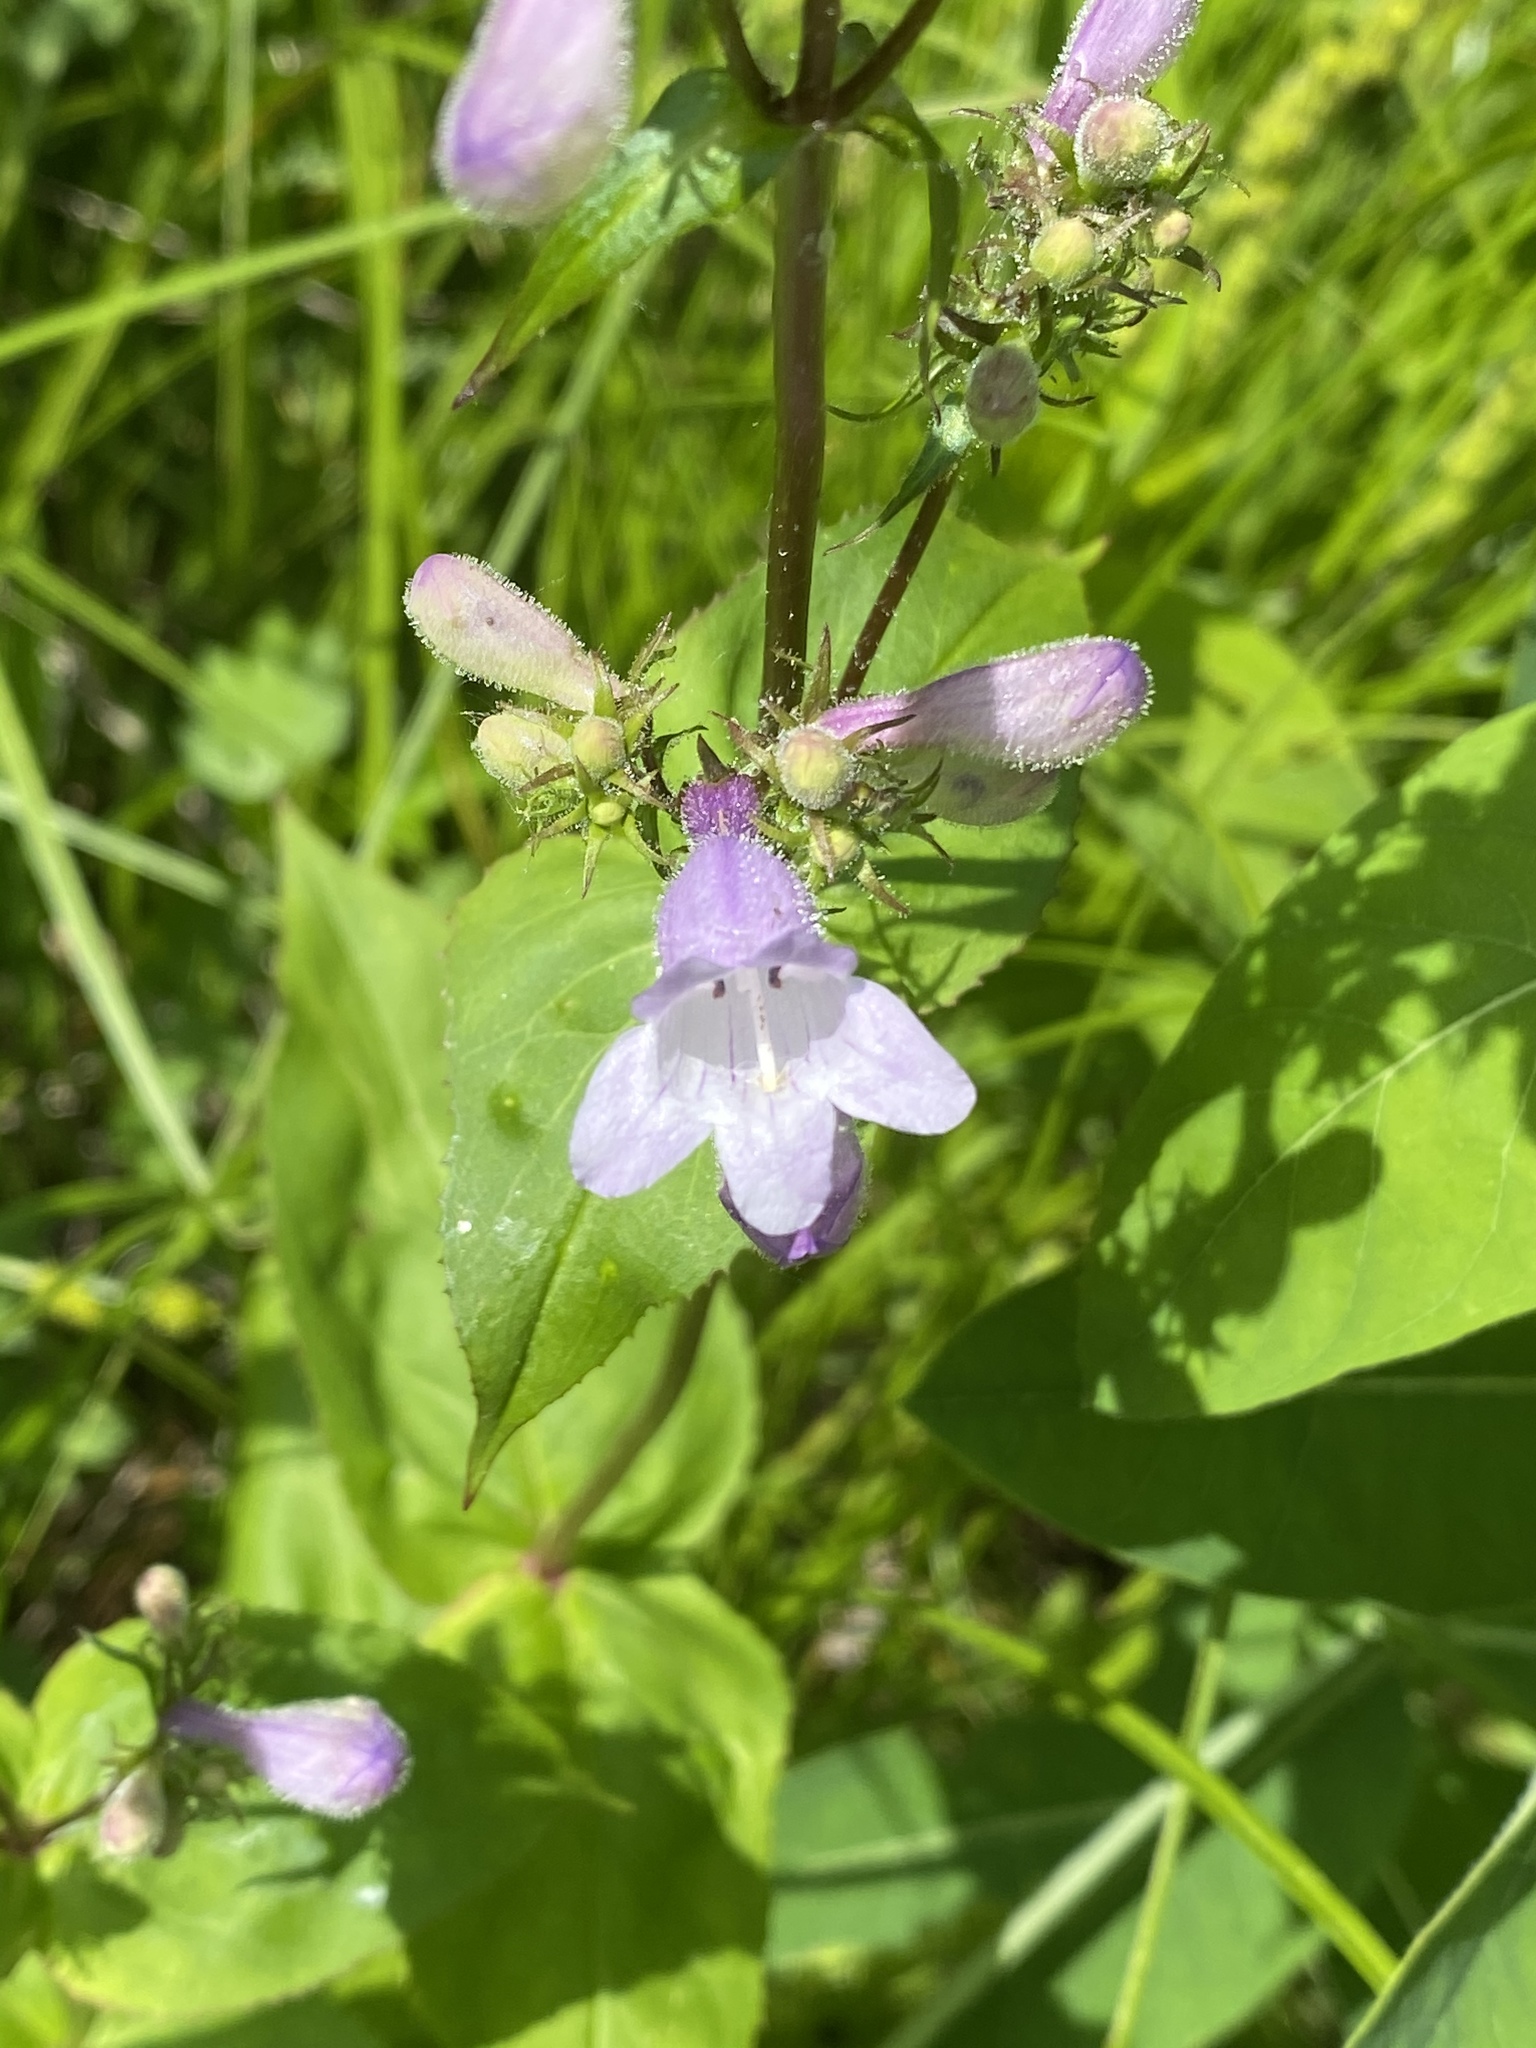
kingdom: Plantae
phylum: Tracheophyta
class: Magnoliopsida
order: Lamiales
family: Plantaginaceae
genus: Penstemon
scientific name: Penstemon calycosus
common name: Long-sepal beardtongue
